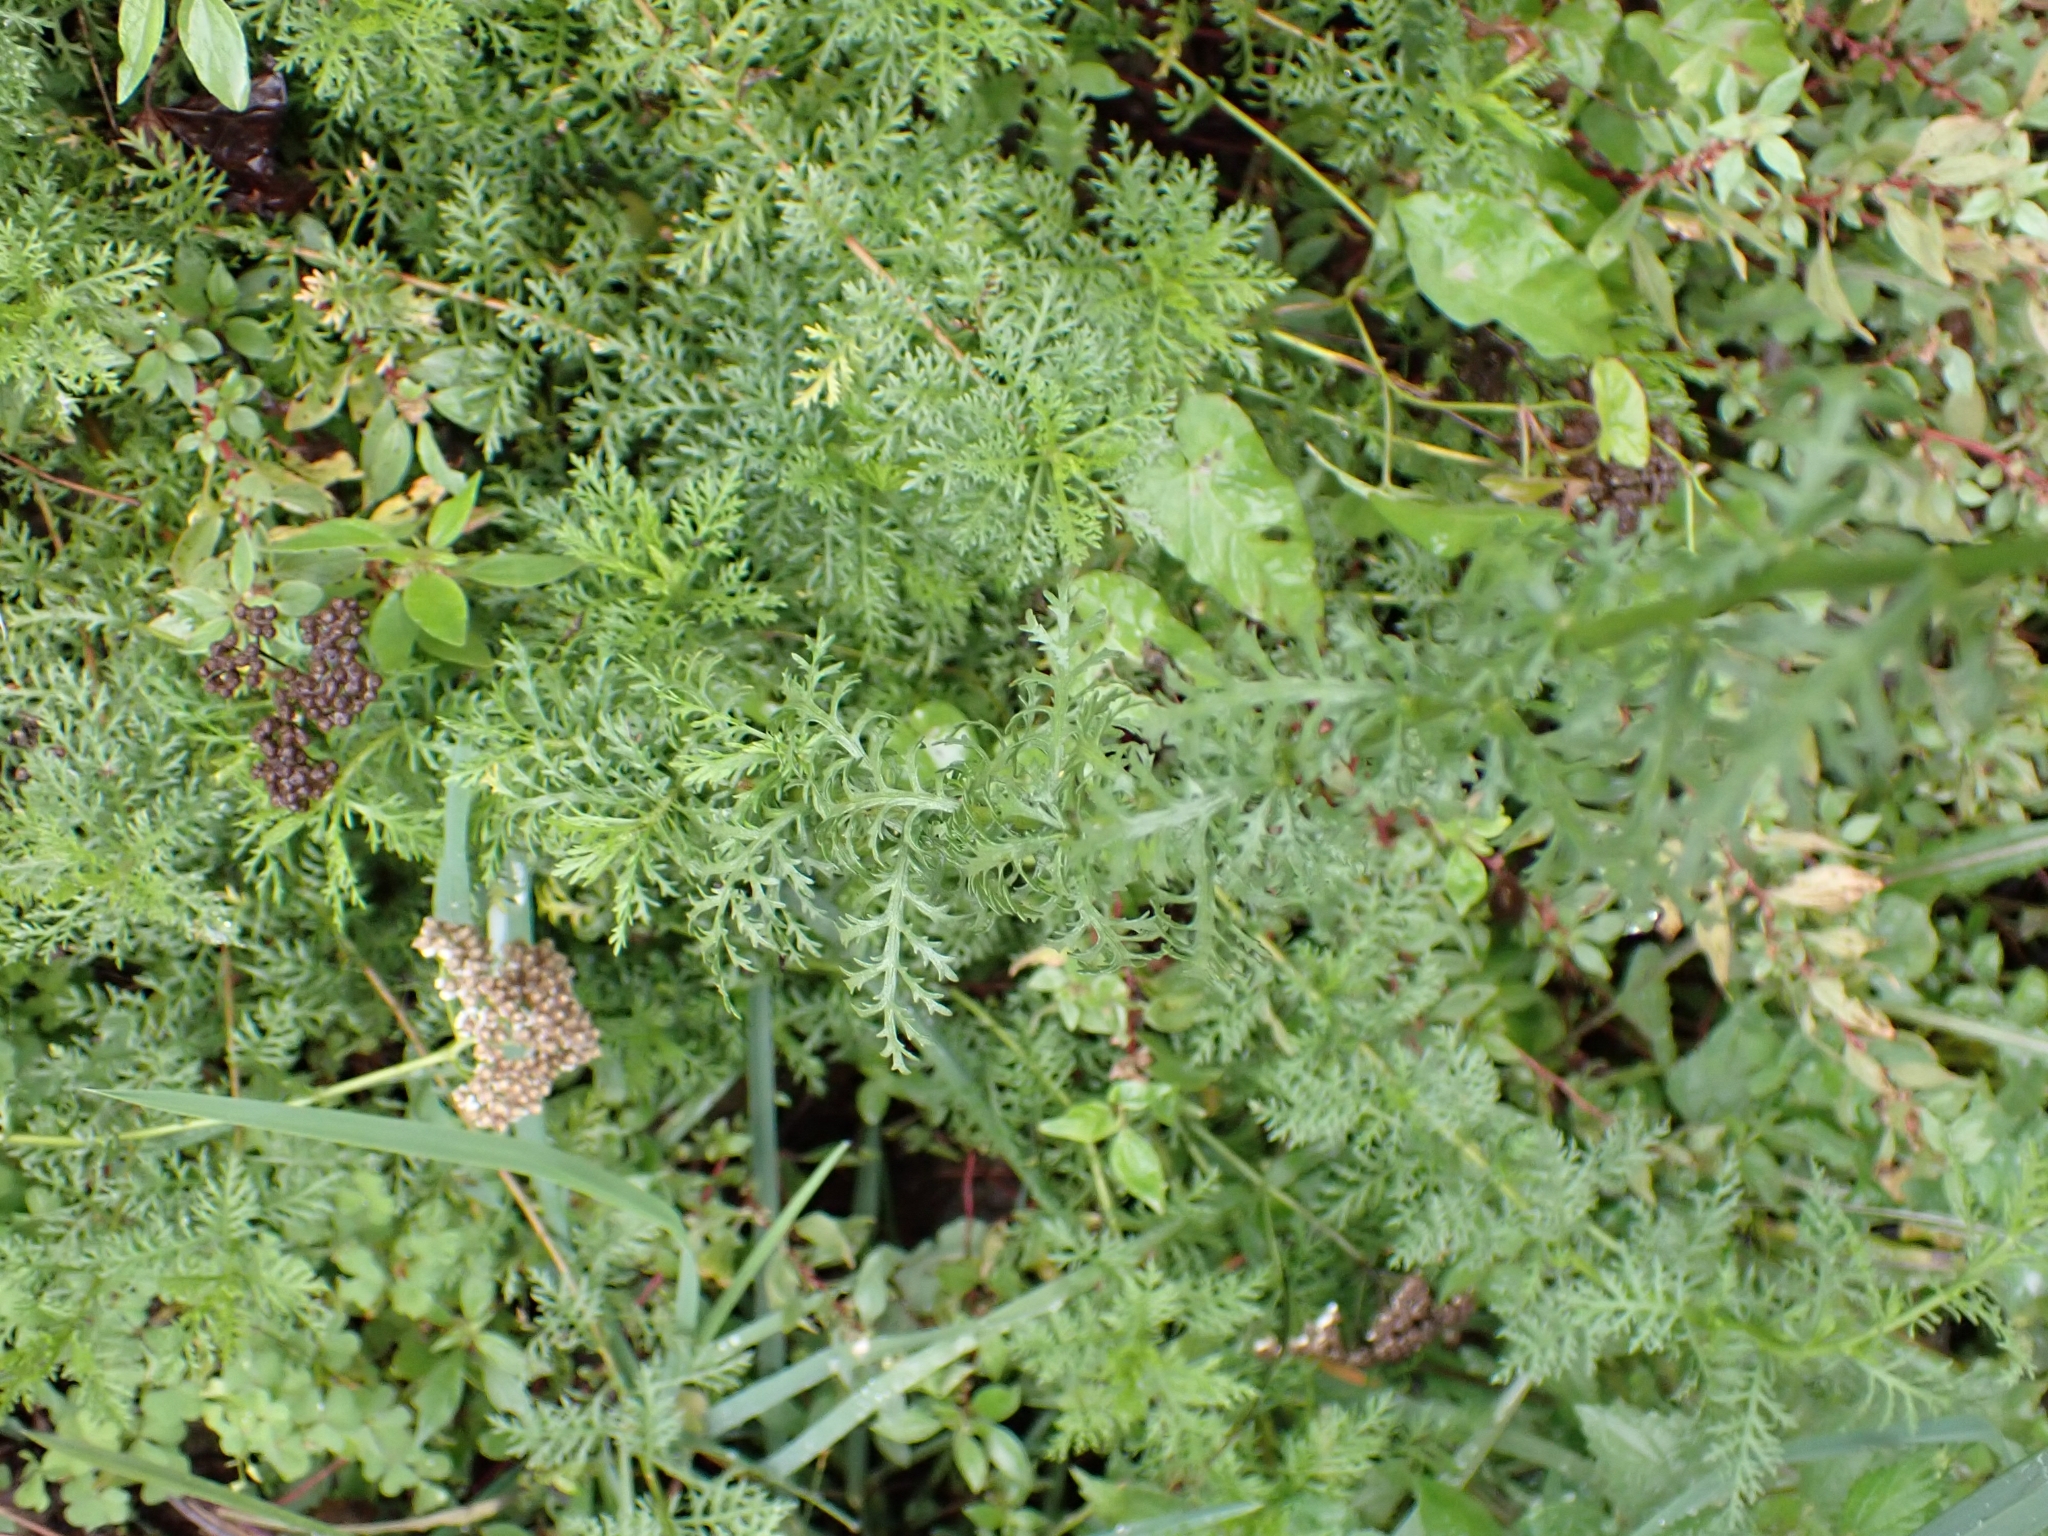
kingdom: Plantae
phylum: Tracheophyta
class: Magnoliopsida
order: Asterales
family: Asteraceae
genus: Achillea
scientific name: Achillea ligustica
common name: Southern yarrow
